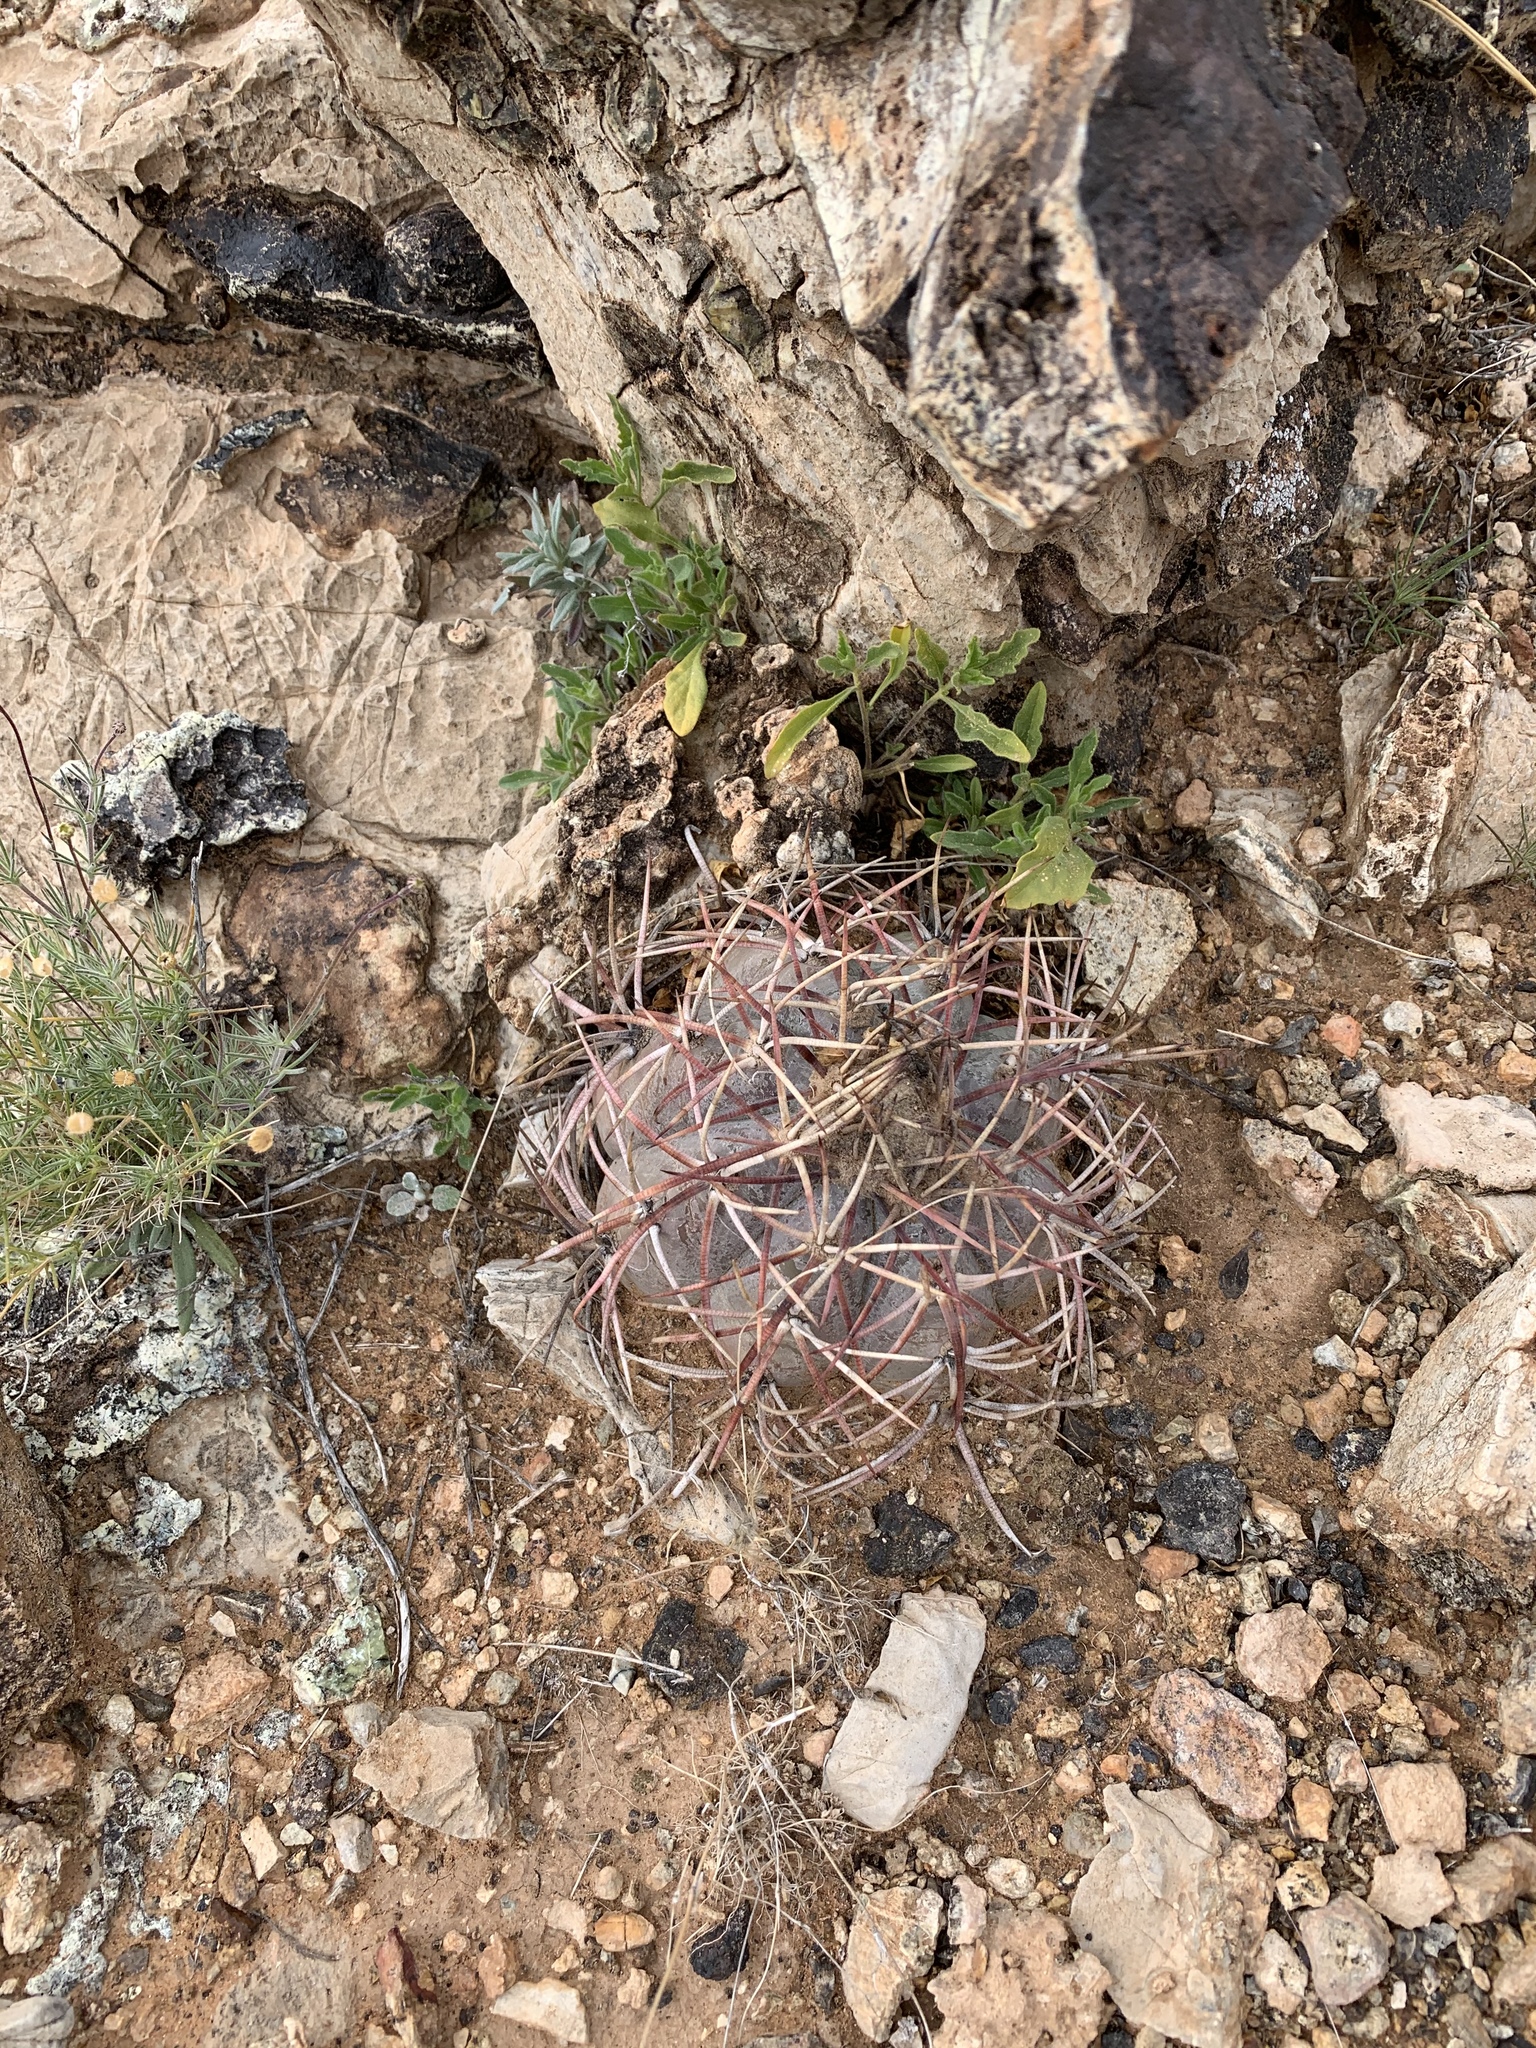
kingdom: Plantae
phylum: Tracheophyta
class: Magnoliopsida
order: Caryophyllales
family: Cactaceae
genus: Echinocactus
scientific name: Echinocactus horizonthalonius
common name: Devilshead
